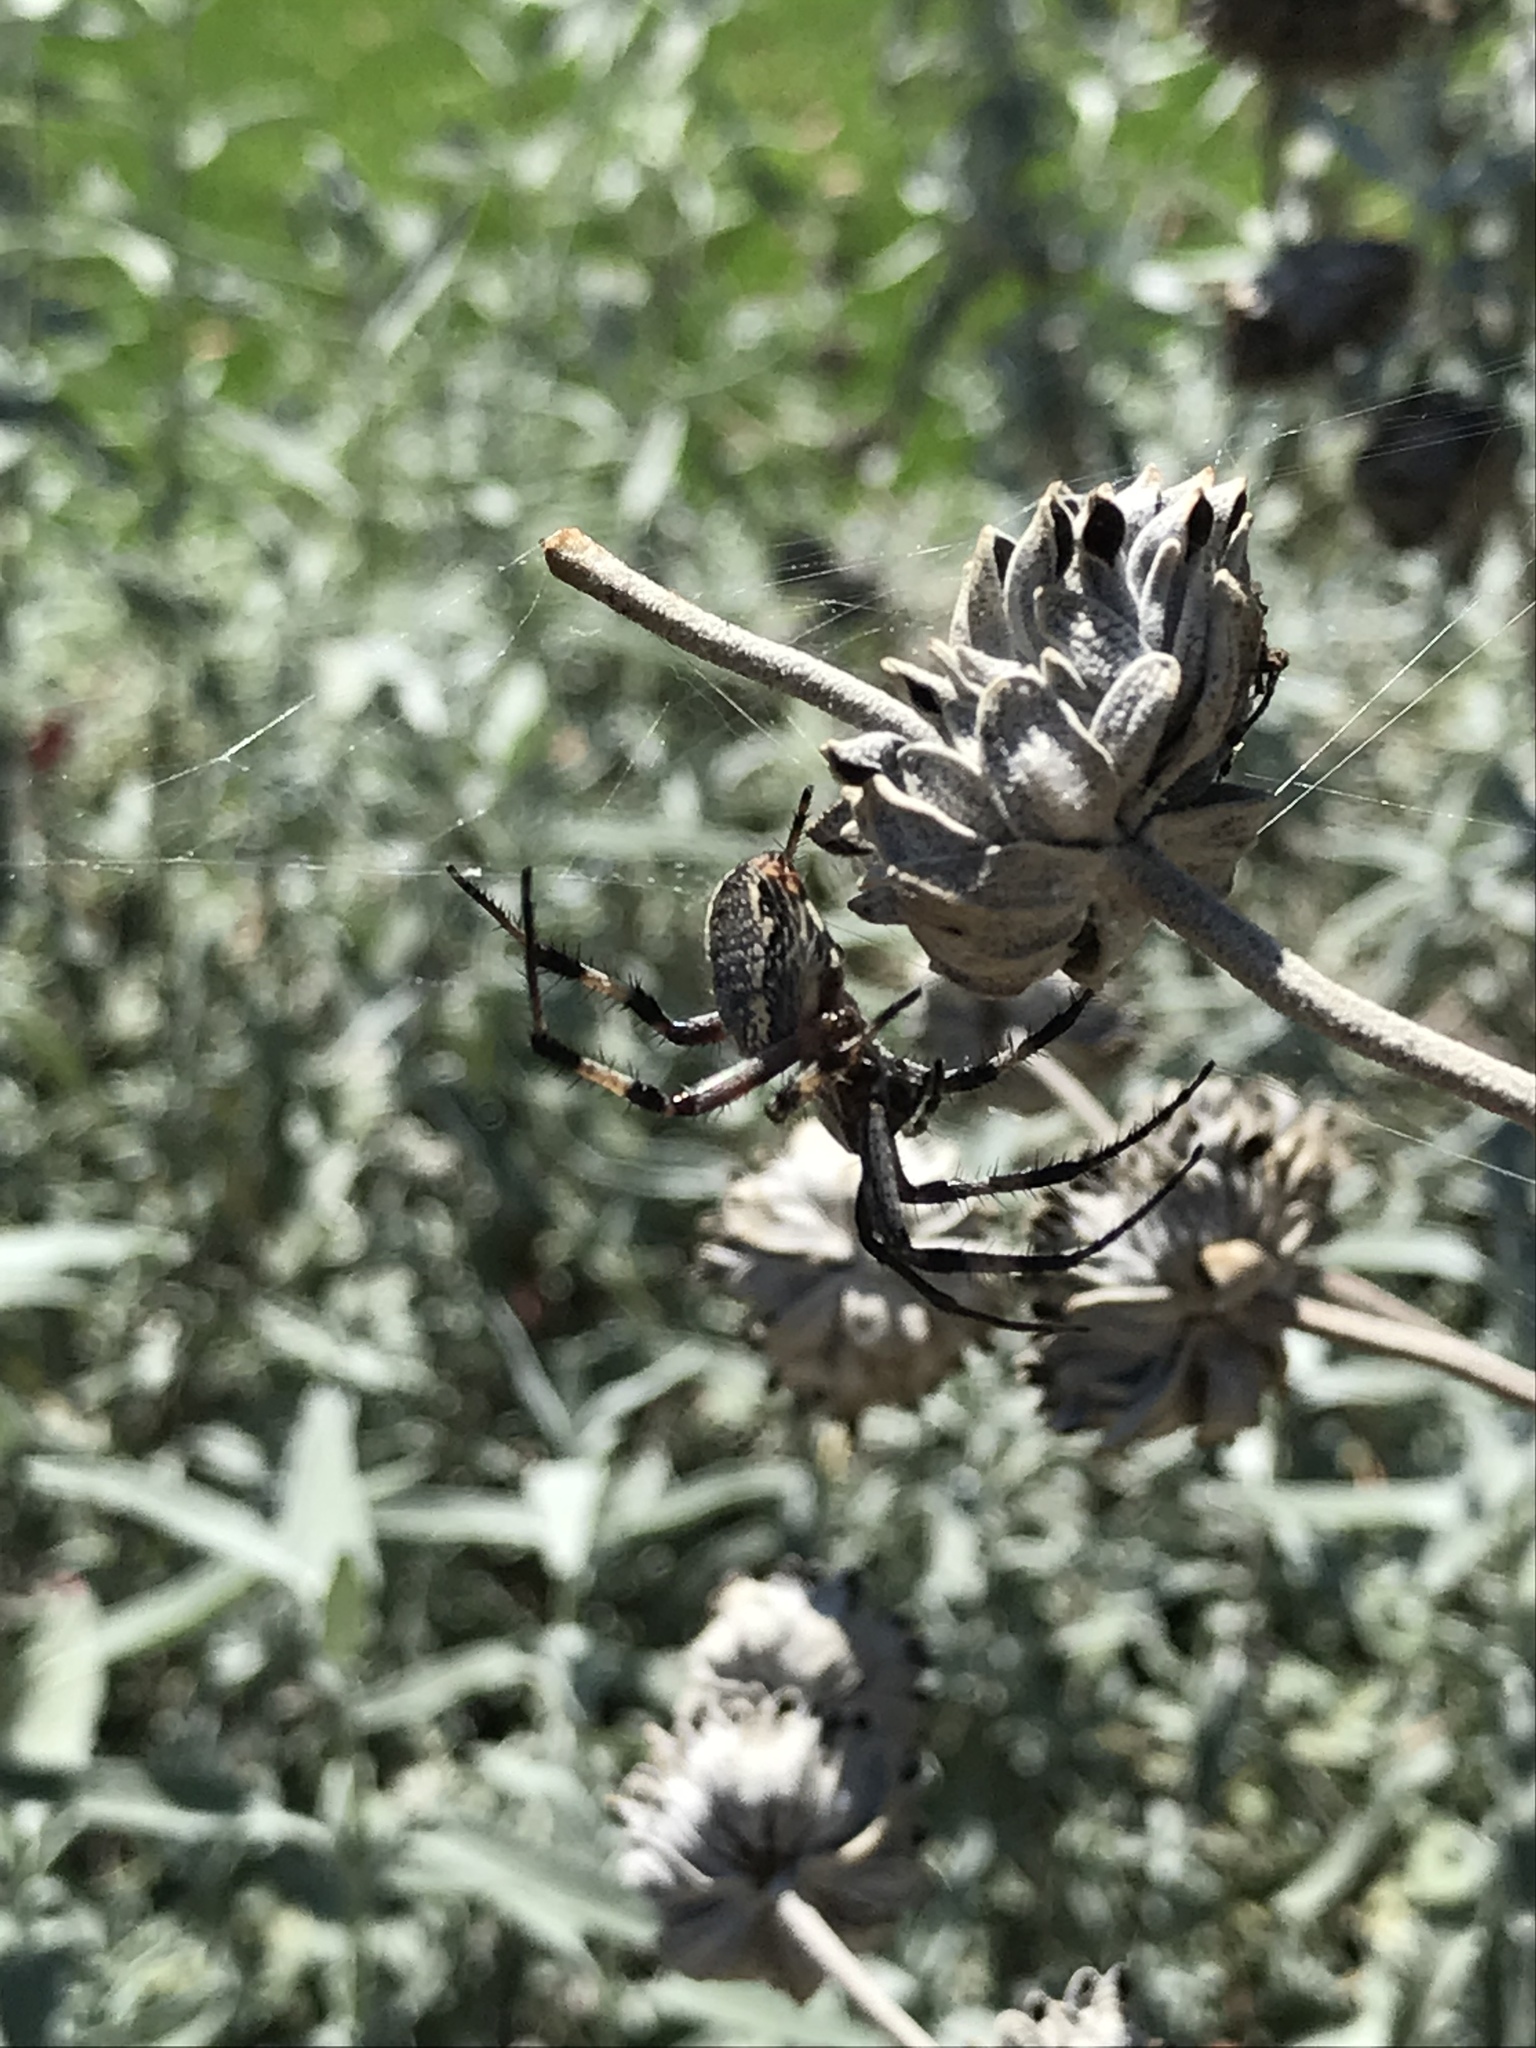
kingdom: Animalia
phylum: Arthropoda
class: Arachnida
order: Araneae
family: Araneidae
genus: Neoscona
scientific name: Neoscona oaxacensis
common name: Orb weavers
